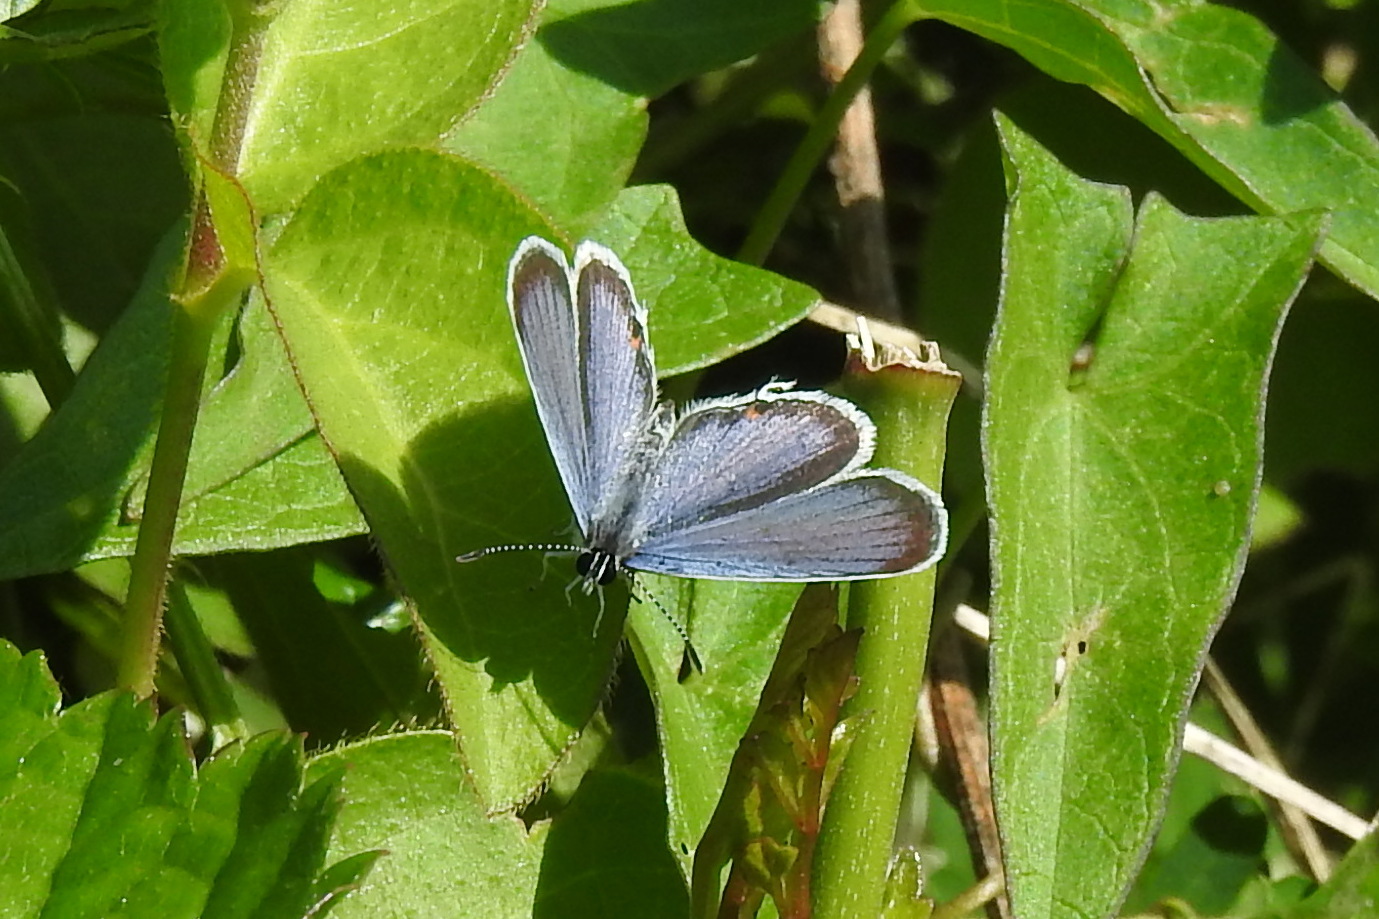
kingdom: Animalia
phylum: Arthropoda
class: Insecta
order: Lepidoptera
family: Lycaenidae
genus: Elkalyce
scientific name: Elkalyce comyntas
